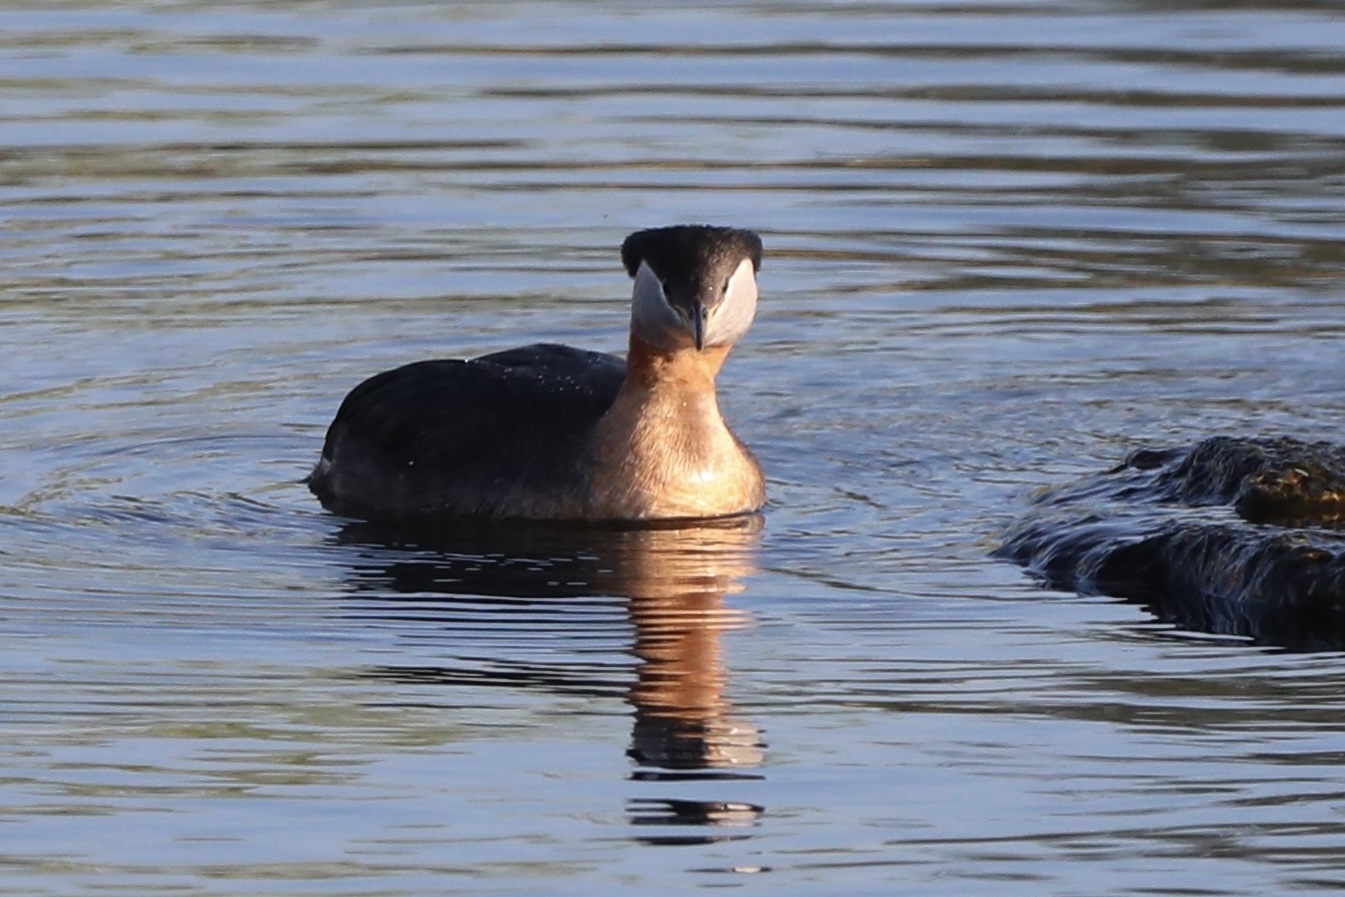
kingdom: Animalia
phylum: Chordata
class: Aves
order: Podicipediformes
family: Podicipedidae
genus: Podiceps
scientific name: Podiceps grisegena
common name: Red-necked grebe
